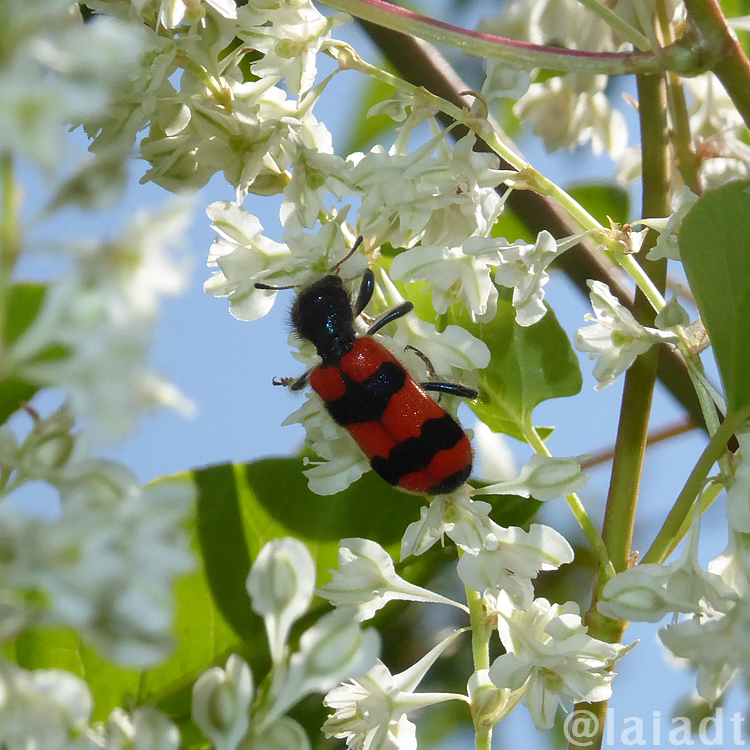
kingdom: Animalia
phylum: Arthropoda
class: Insecta
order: Coleoptera
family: Cleridae
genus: Trichodes
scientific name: Trichodes apiarius
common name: Bee-eating beetle
